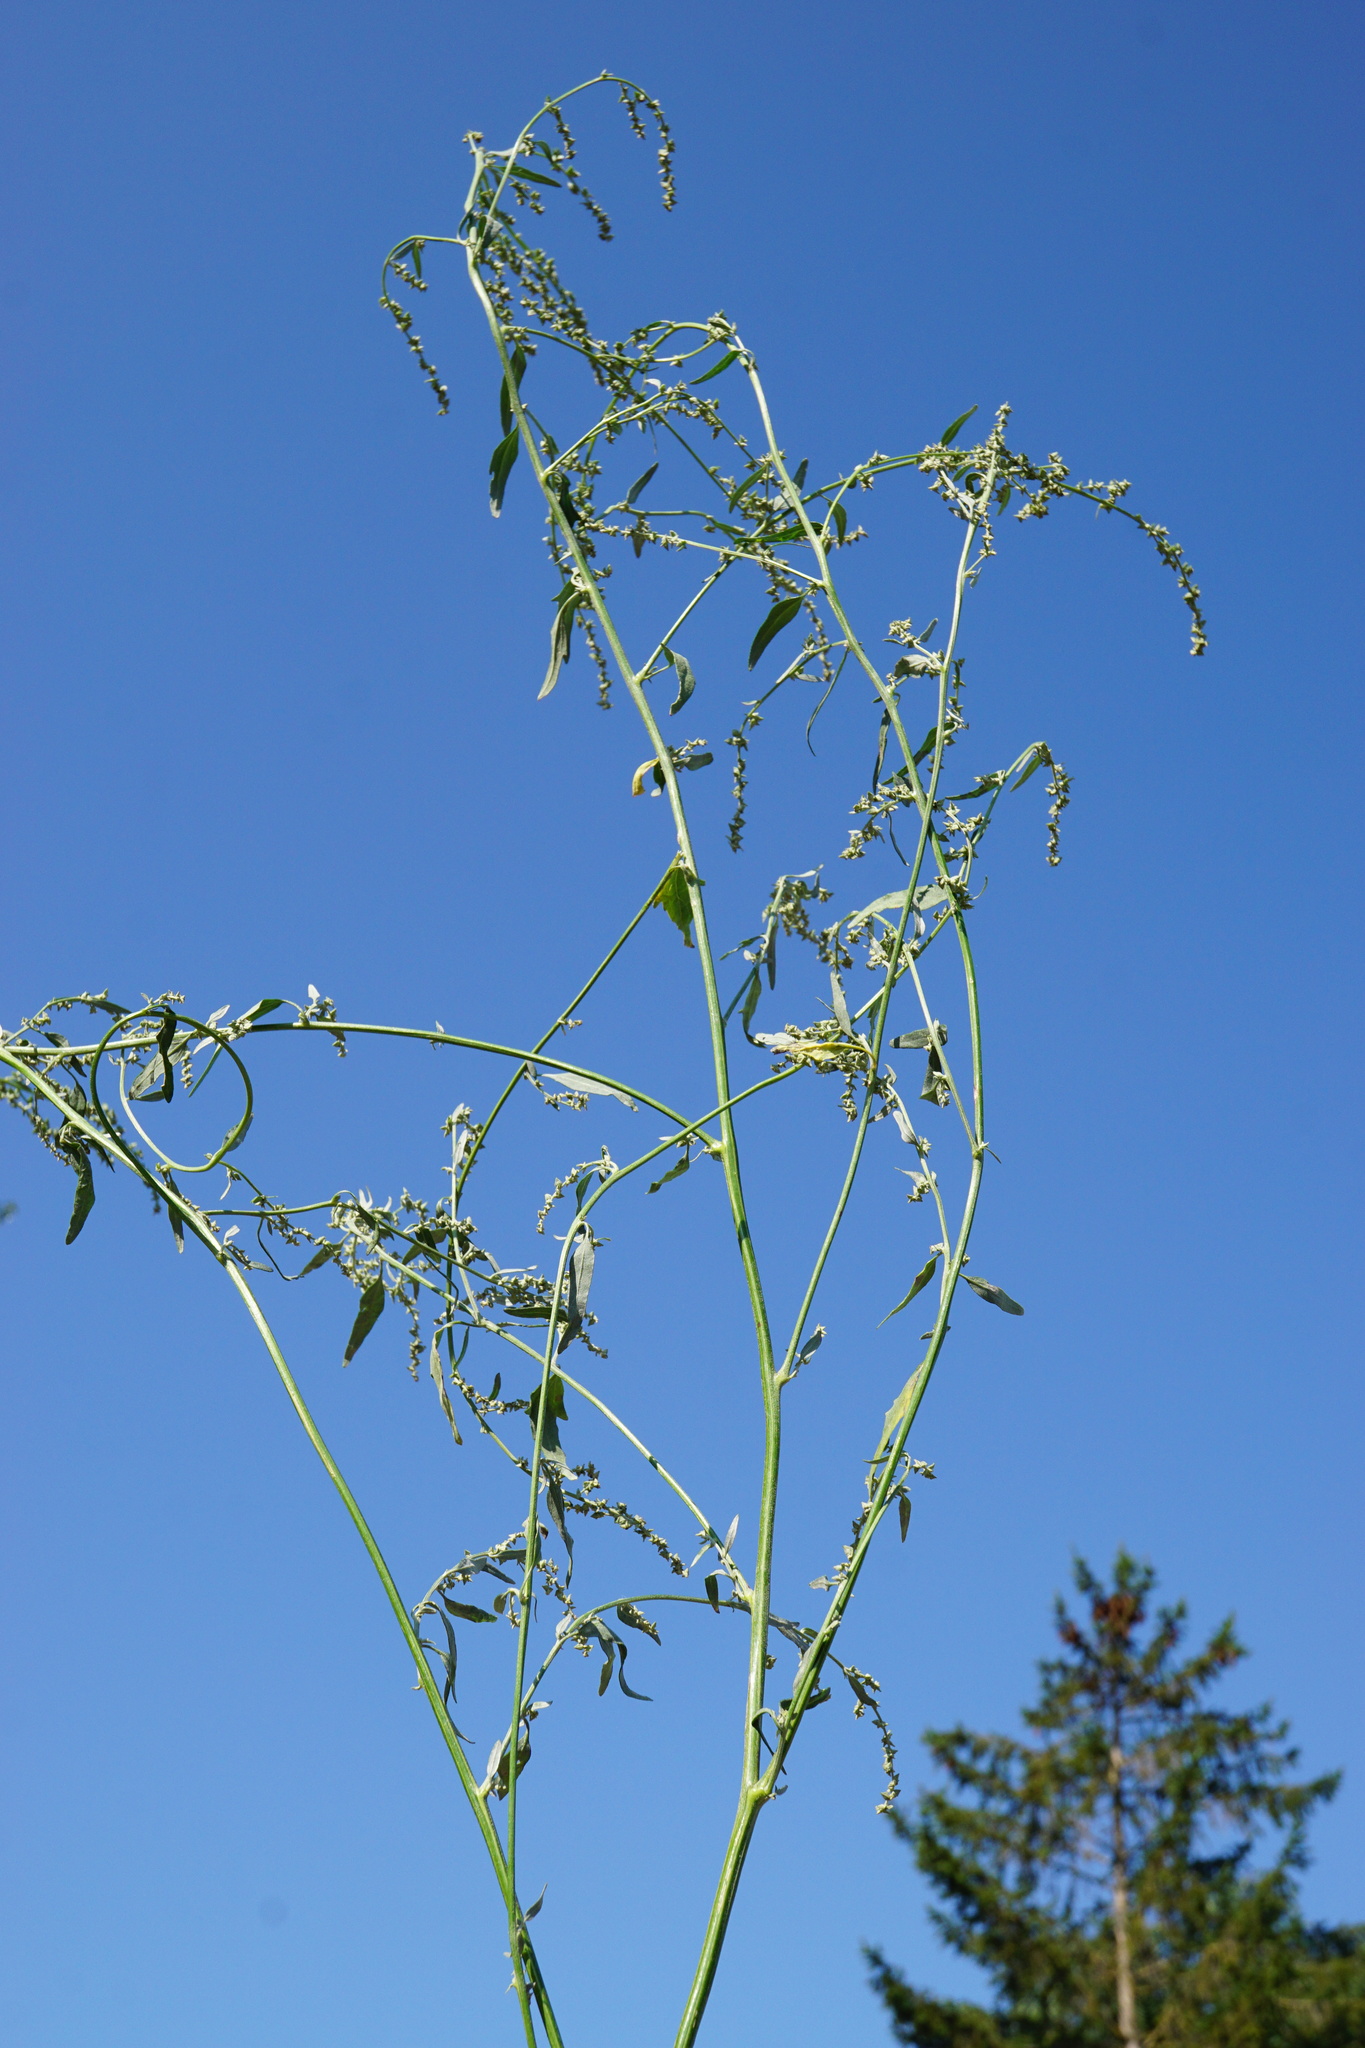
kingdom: Plantae
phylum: Tracheophyta
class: Magnoliopsida
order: Caryophyllales
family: Amaranthaceae
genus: Atriplex
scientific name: Atriplex oblongifolia
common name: Oblongleaf orache
